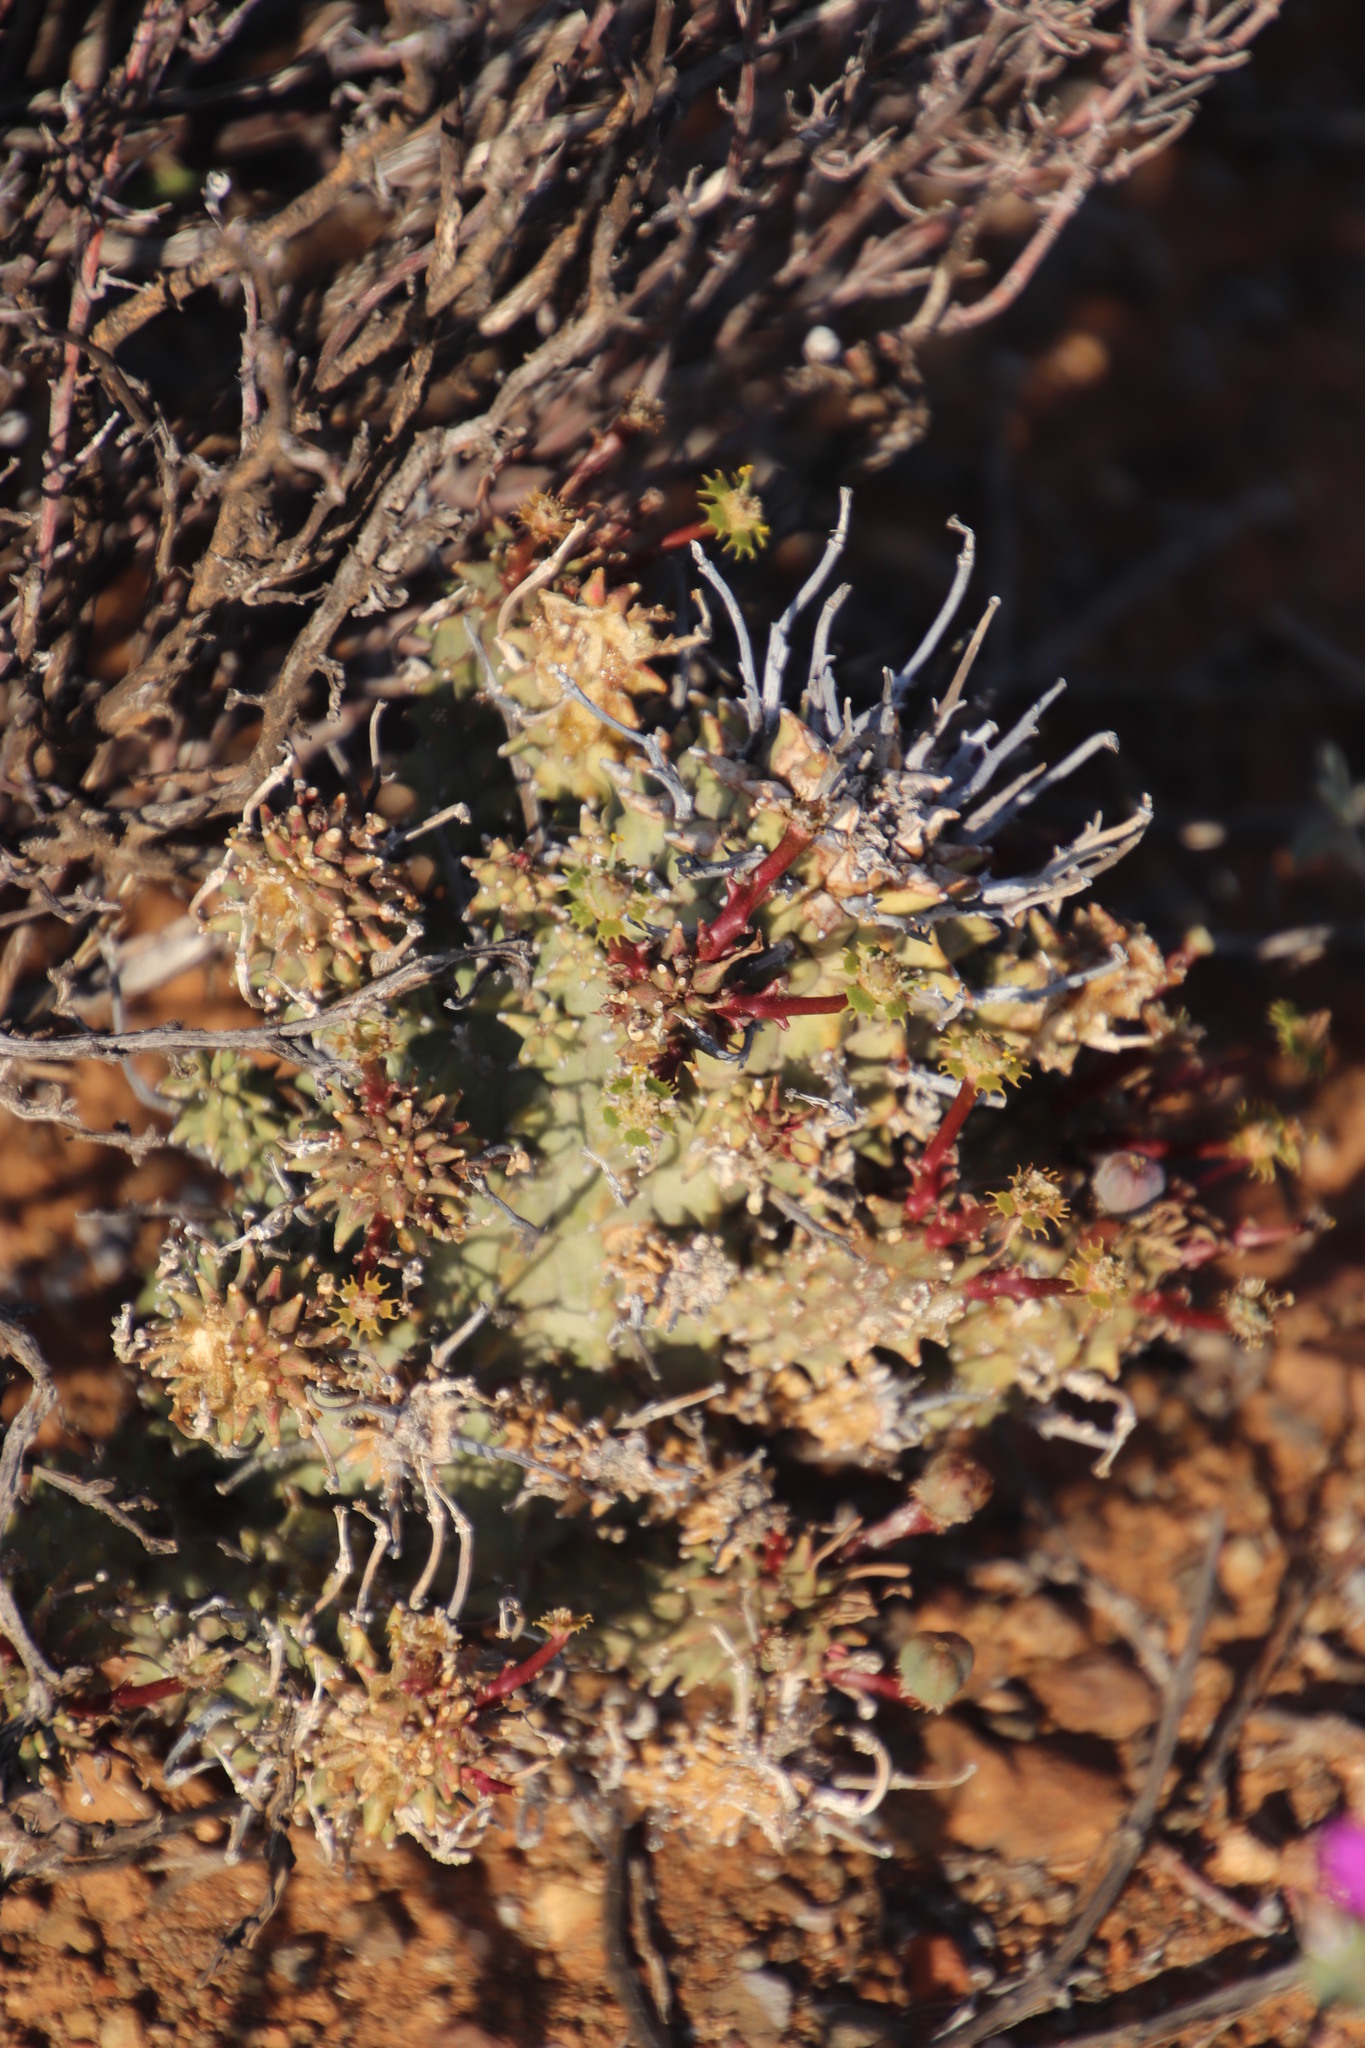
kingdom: Plantae
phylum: Tracheophyta
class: Magnoliopsida
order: Malpighiales
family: Euphorbiaceae
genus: Euphorbia
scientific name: Euphorbia multiceps
